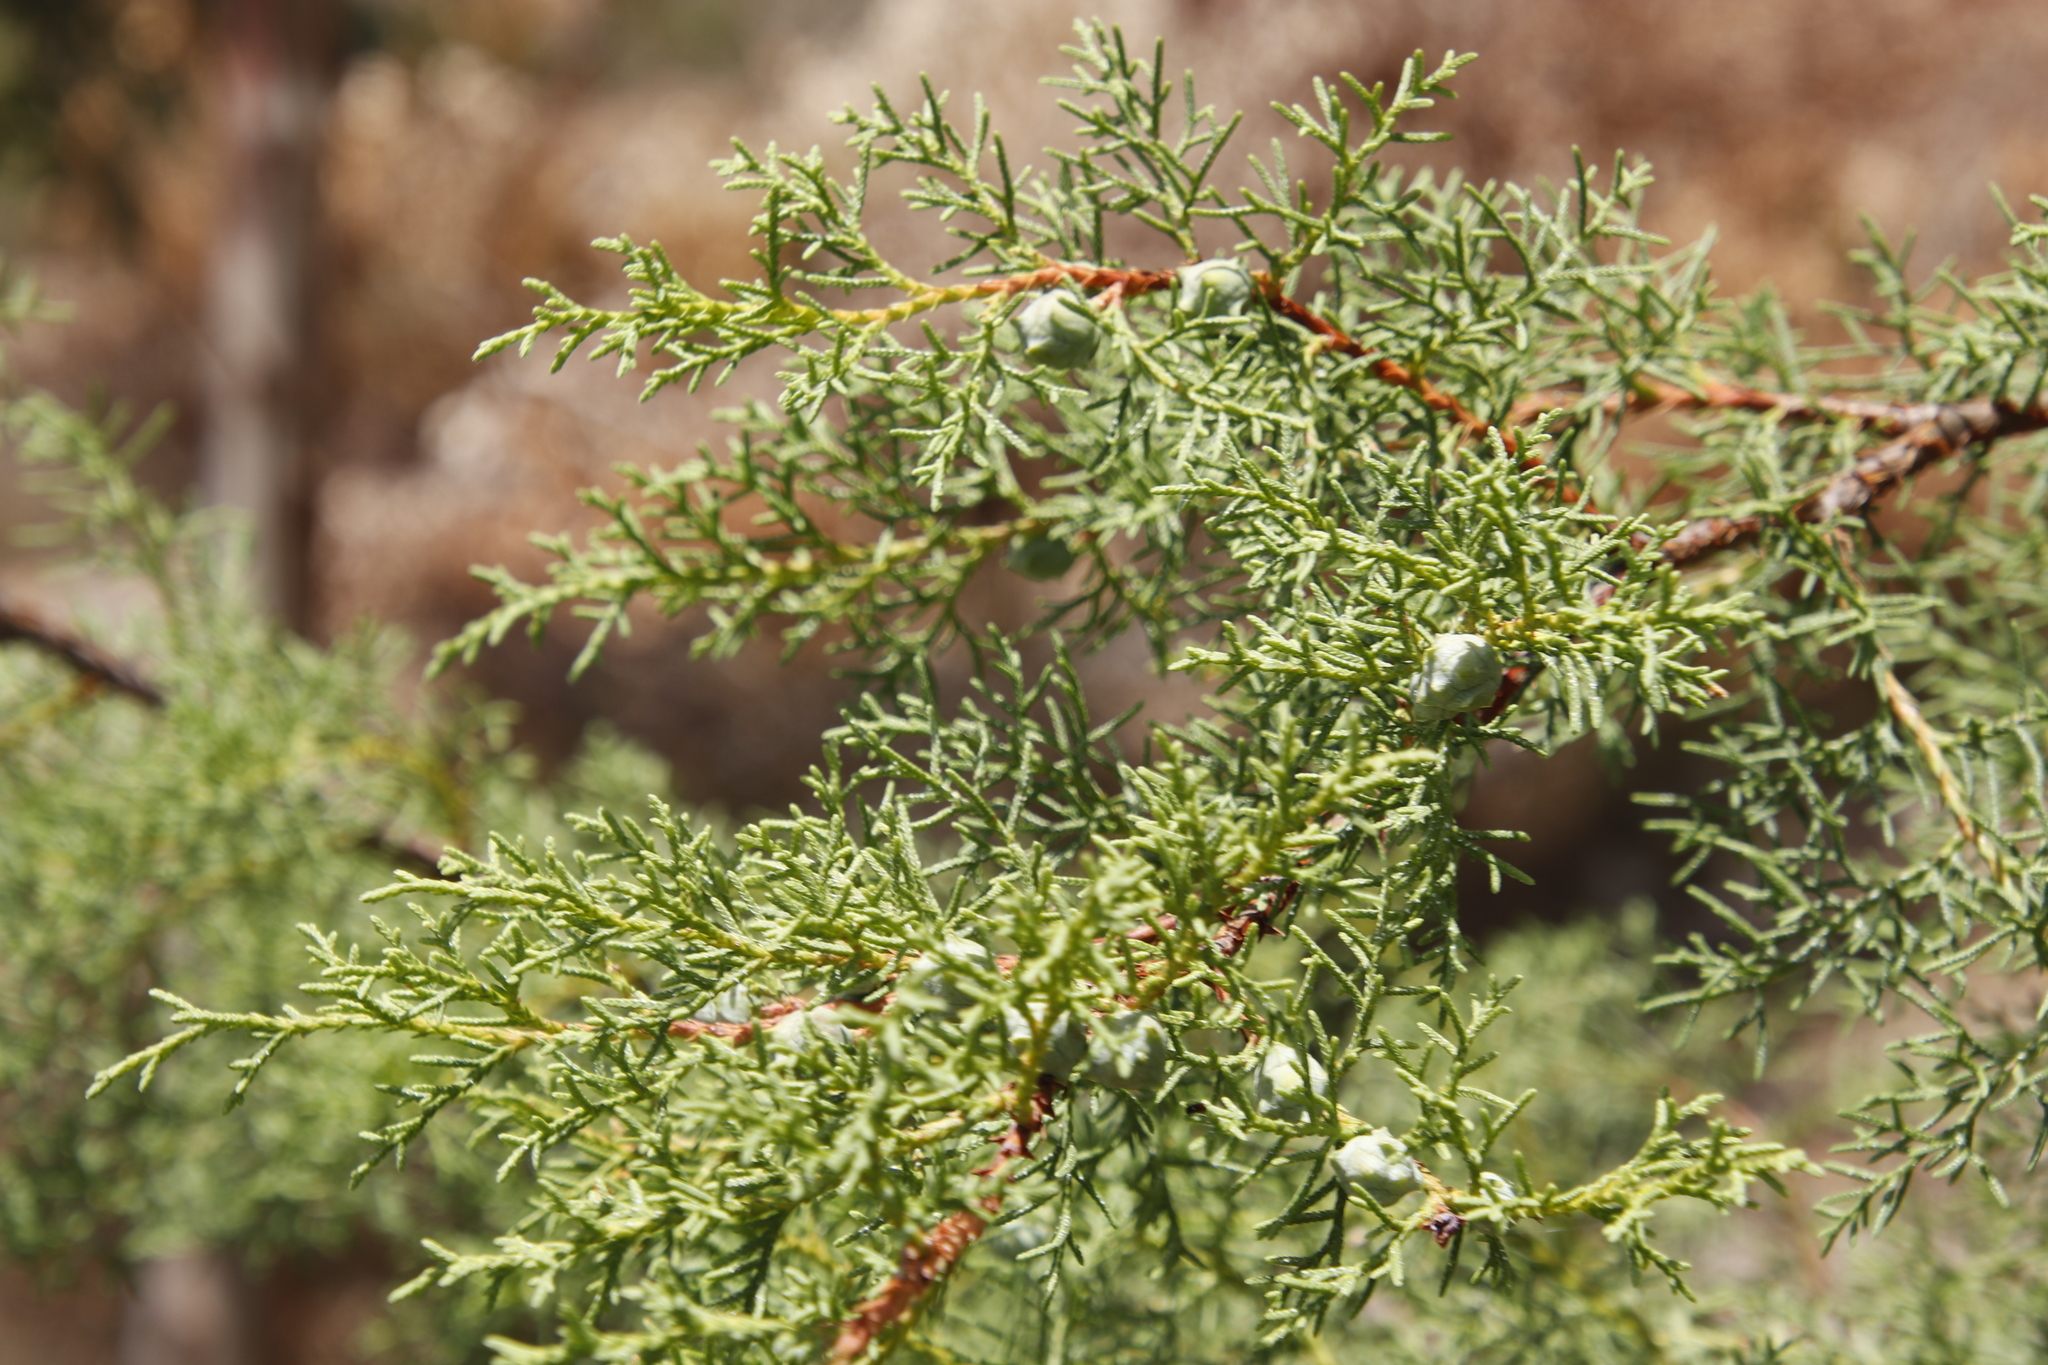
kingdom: Plantae
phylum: Tracheophyta
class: Pinopsida
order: Pinales
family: Cupressaceae
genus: Cupressus
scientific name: Cupressus lusitanica
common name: Mexican cypress
